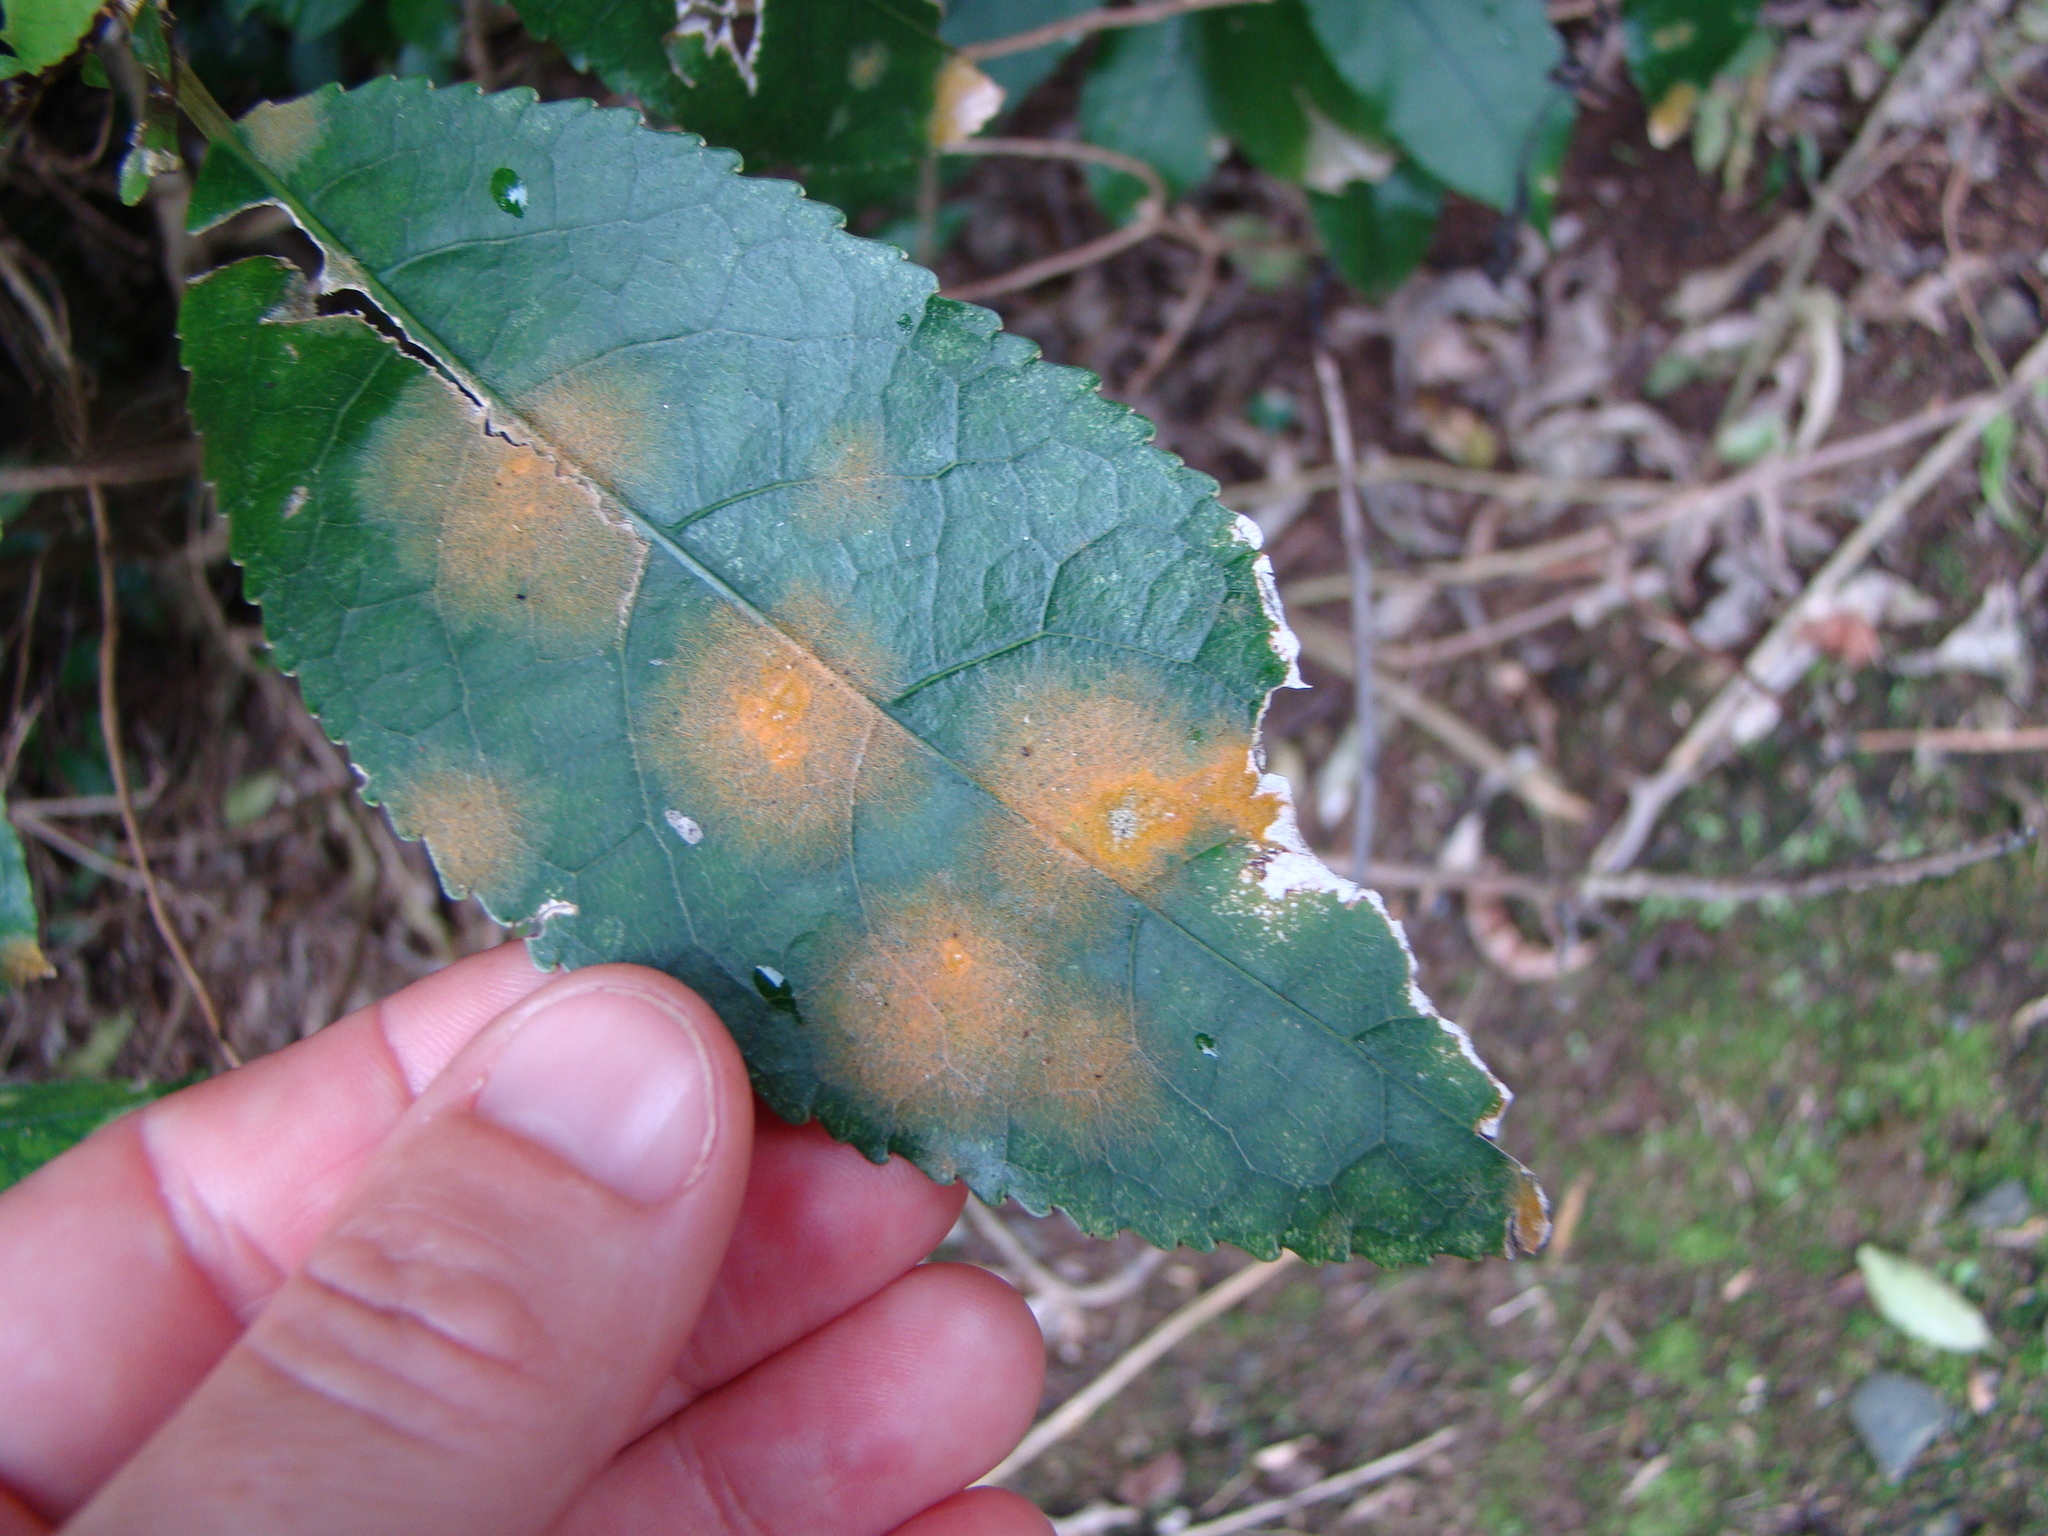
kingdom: Plantae
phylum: Chlorophyta
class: Ulvophyceae
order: Trentepohliales
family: Trentepohliaceae
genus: Cephaleuros
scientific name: Cephaleuros
